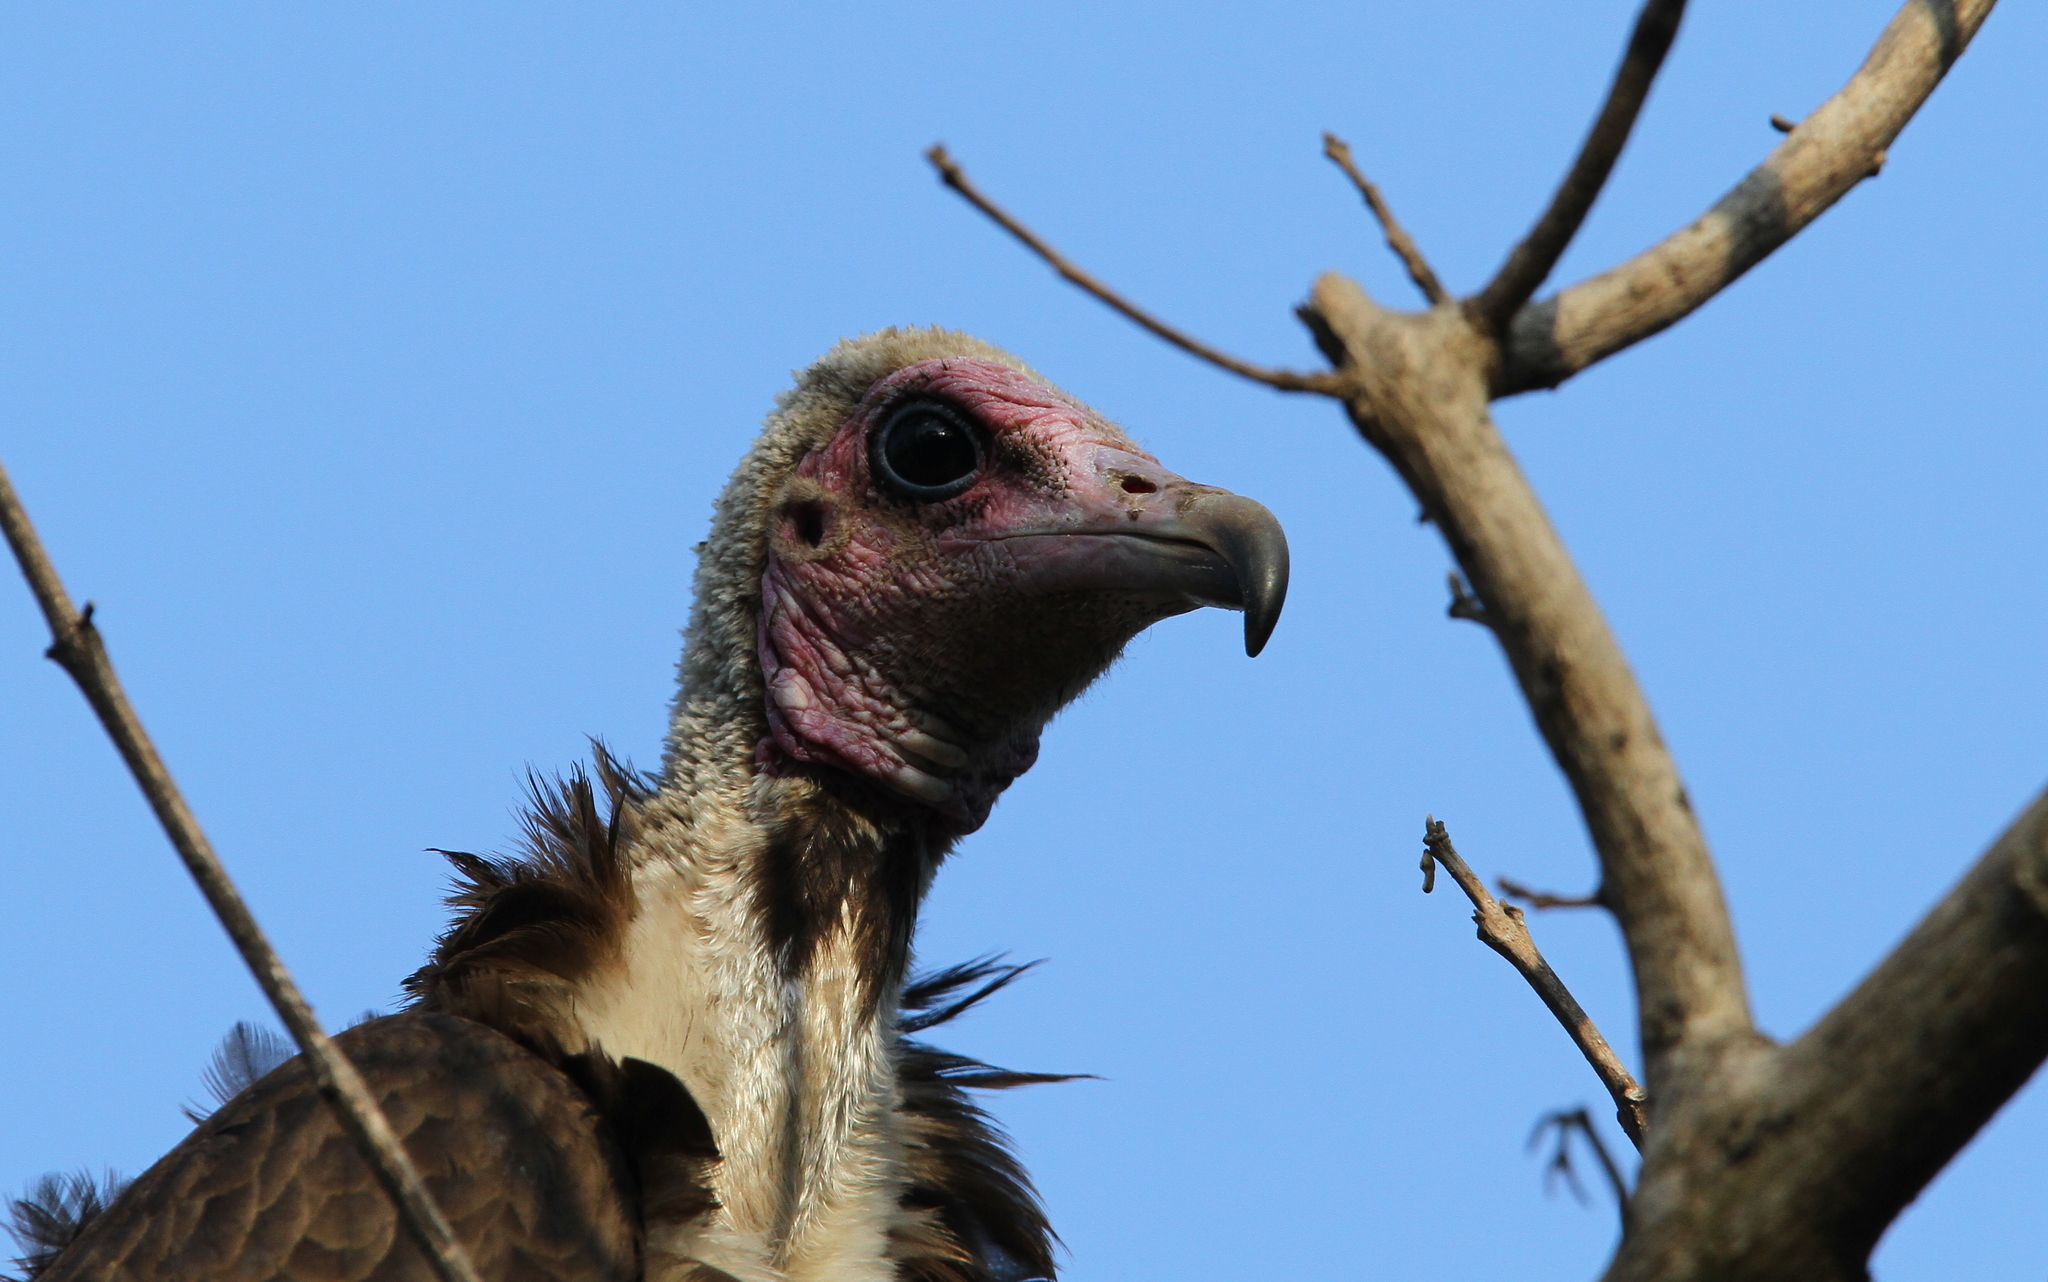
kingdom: Animalia
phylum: Chordata
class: Aves
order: Accipitriformes
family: Accipitridae
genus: Necrosyrtes
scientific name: Necrosyrtes monachus
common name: Hooded vulture
